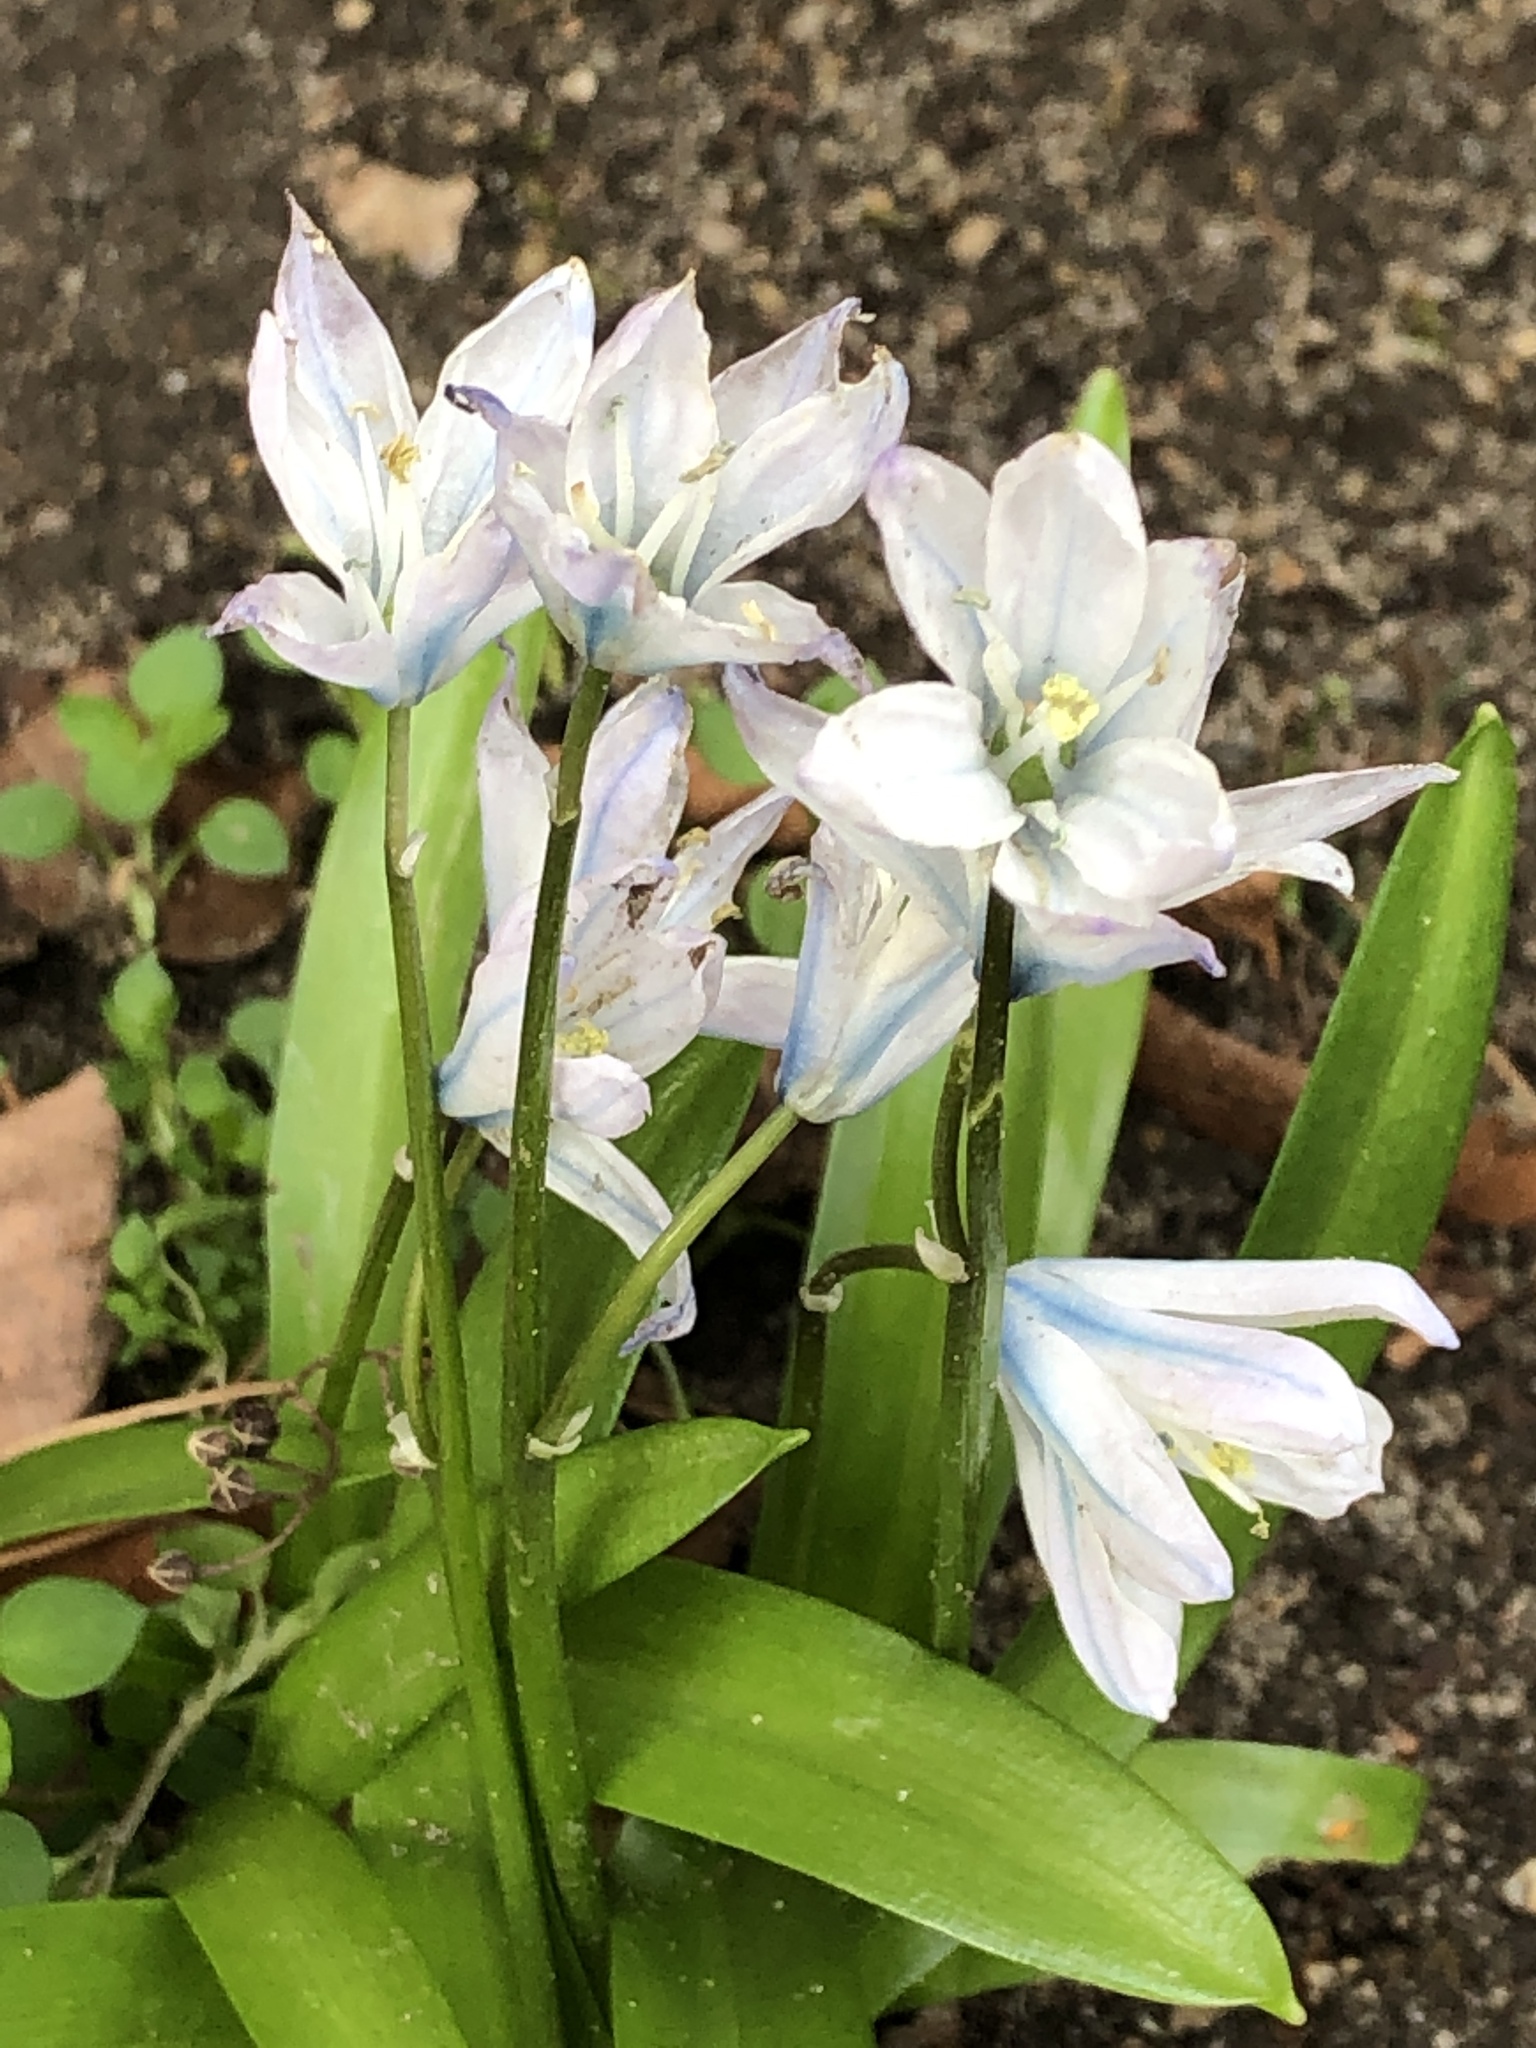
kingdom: Plantae
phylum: Tracheophyta
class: Liliopsida
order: Asparagales
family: Asparagaceae
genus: Scilla
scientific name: Scilla mischtschenkoana
